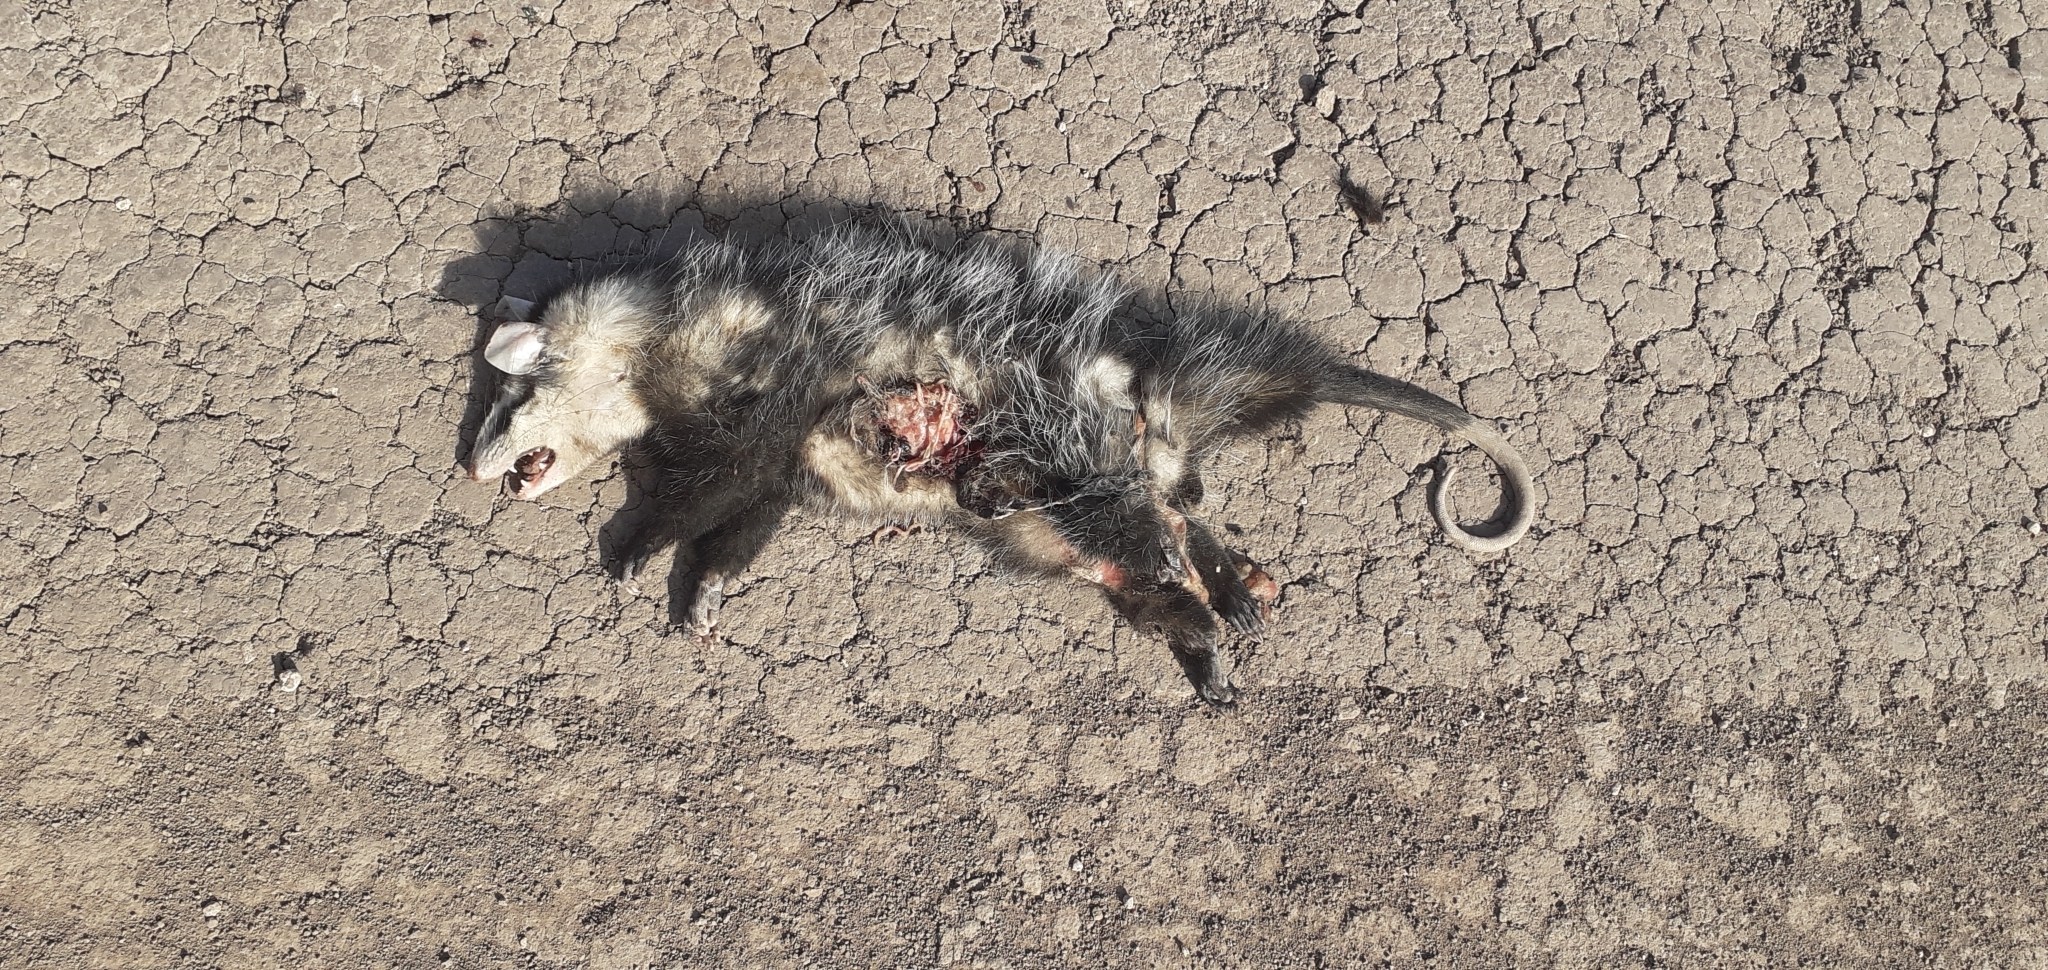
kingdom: Animalia
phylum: Chordata
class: Mammalia
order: Didelphimorphia
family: Didelphidae
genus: Didelphis
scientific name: Didelphis albiventris
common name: White-eared opossum
